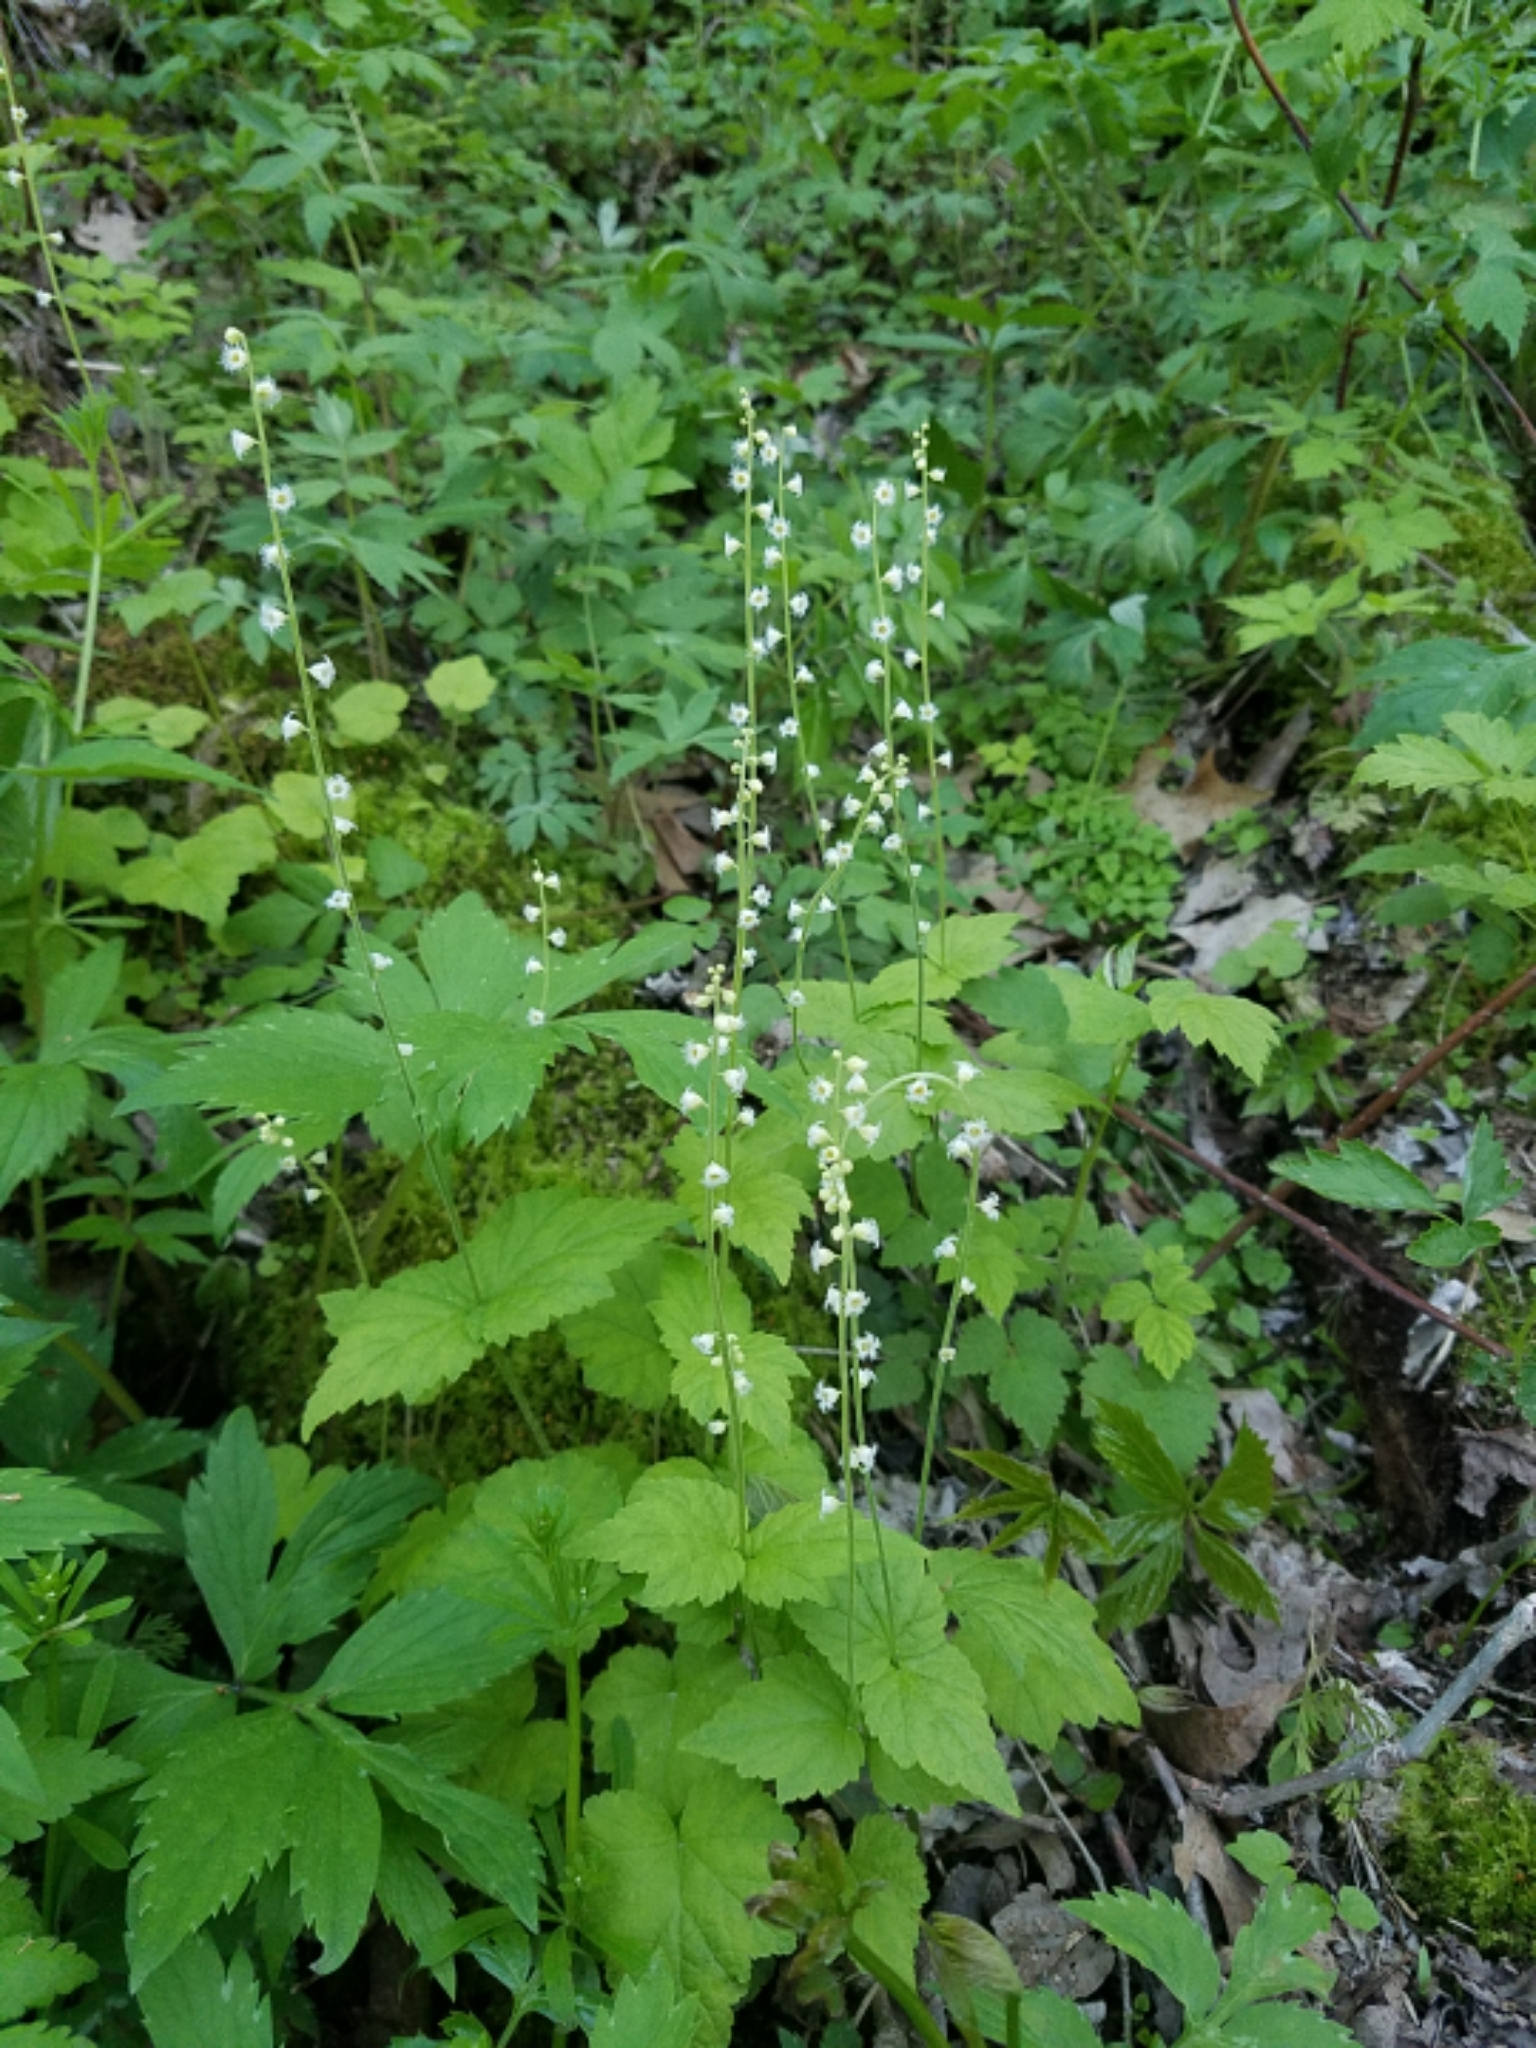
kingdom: Plantae
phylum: Tracheophyta
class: Magnoliopsida
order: Saxifragales
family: Saxifragaceae
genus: Mitella
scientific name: Mitella diphylla
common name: Coolwort
